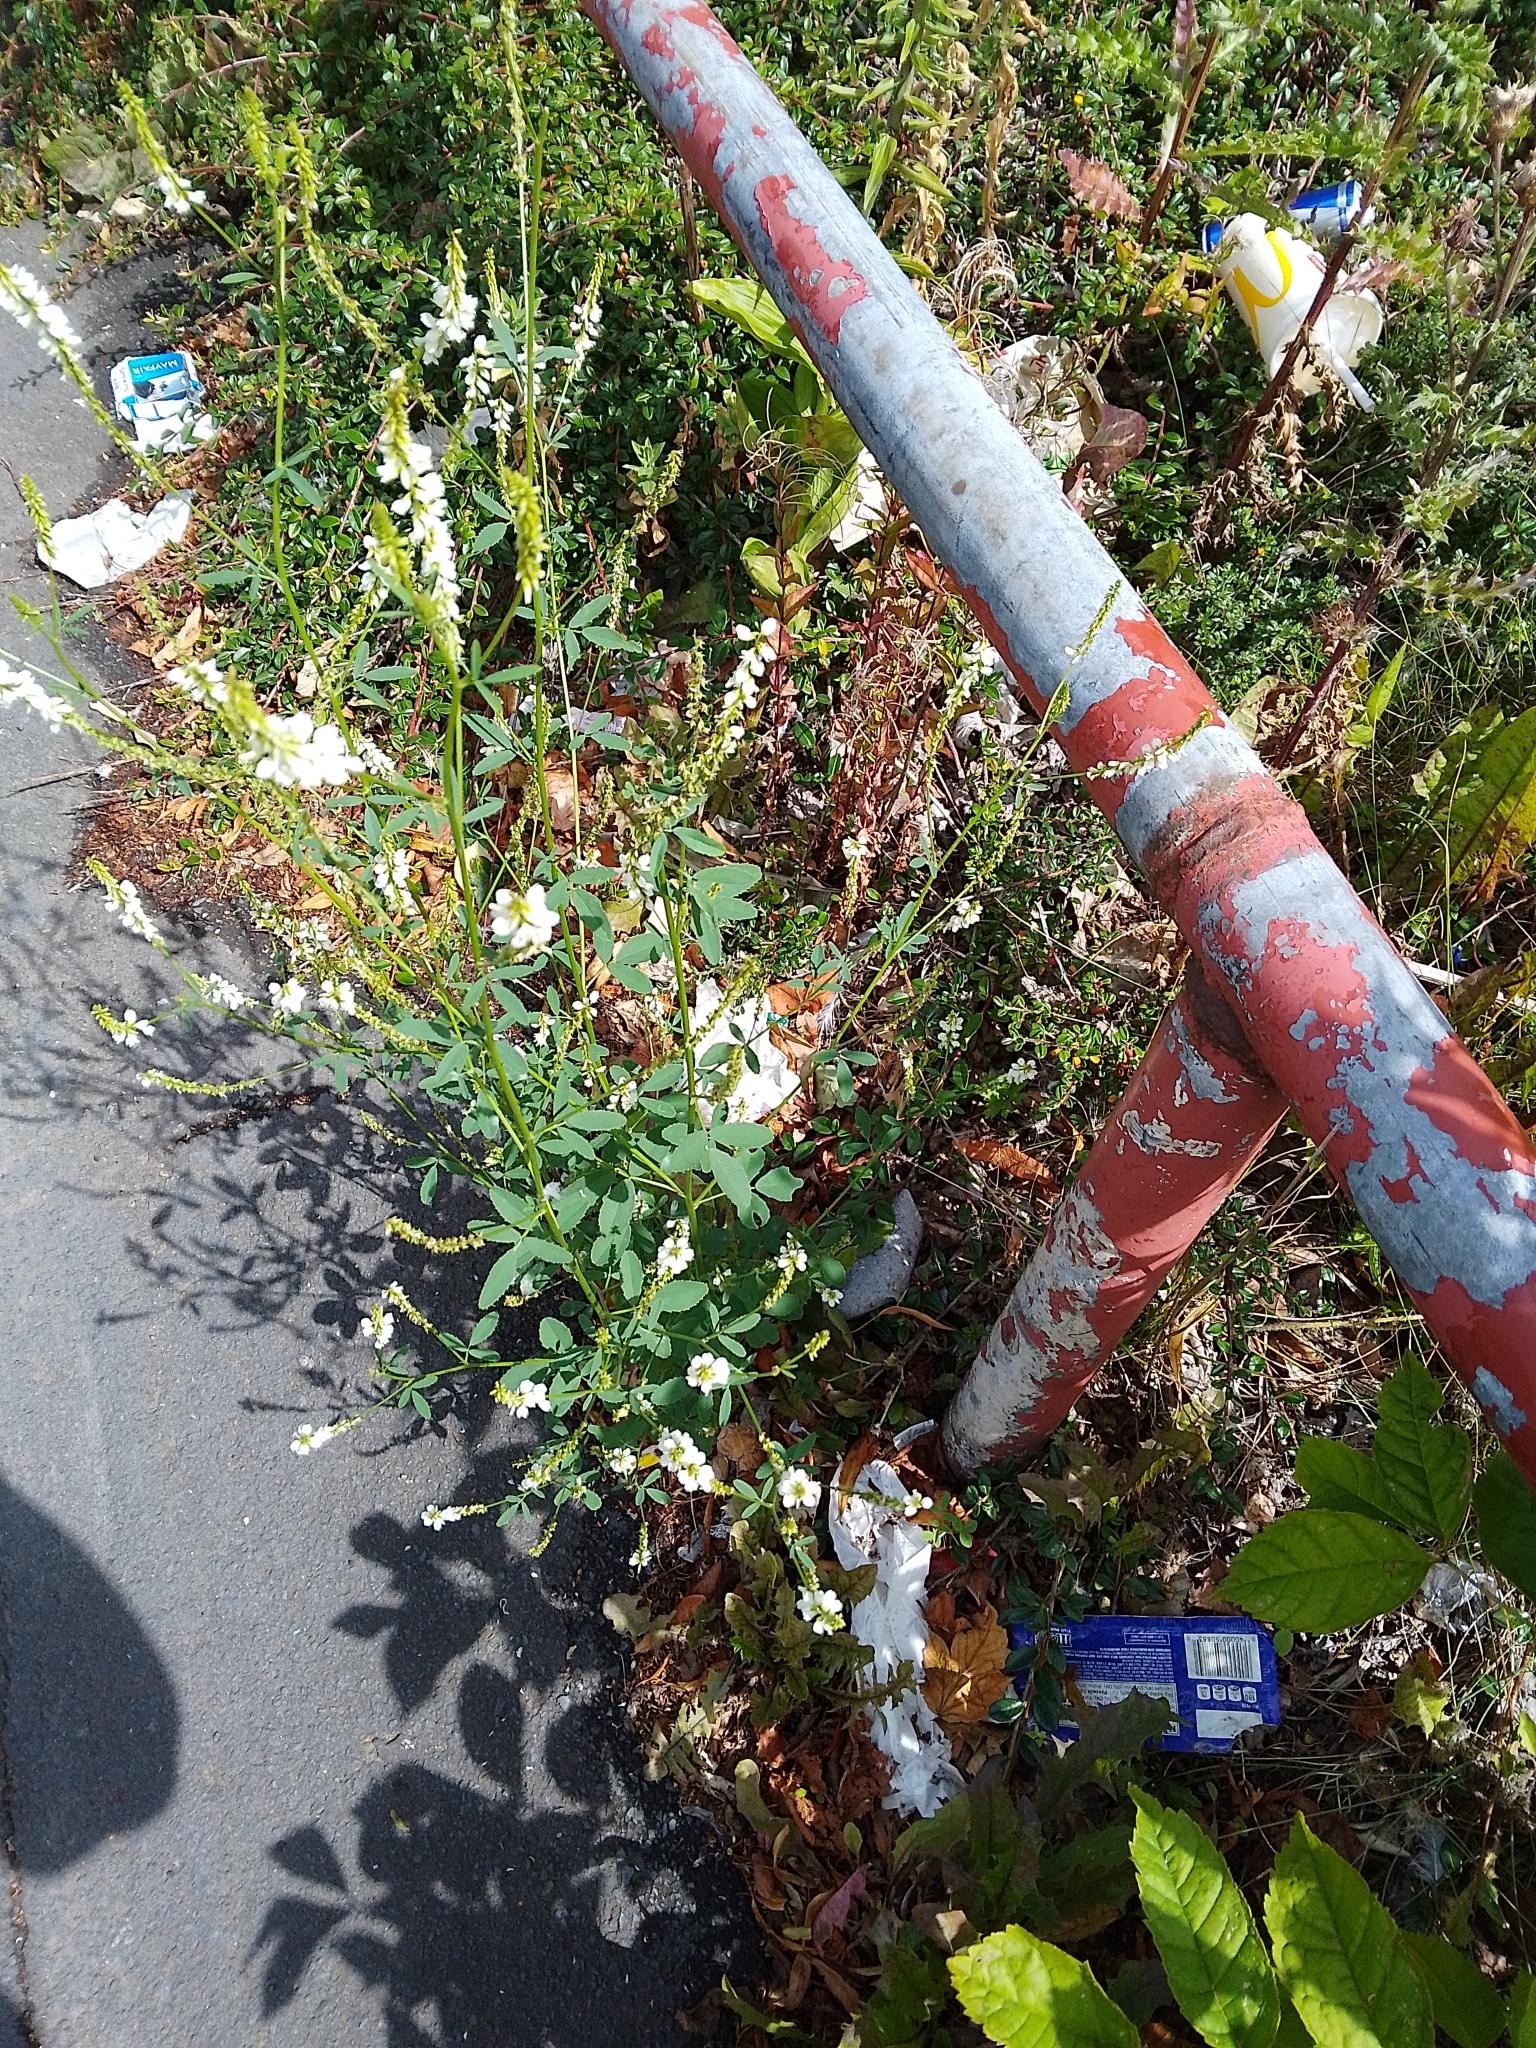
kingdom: Plantae
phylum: Tracheophyta
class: Magnoliopsida
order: Fabales
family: Fabaceae
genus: Melilotus
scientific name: Melilotus albus
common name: White melilot
